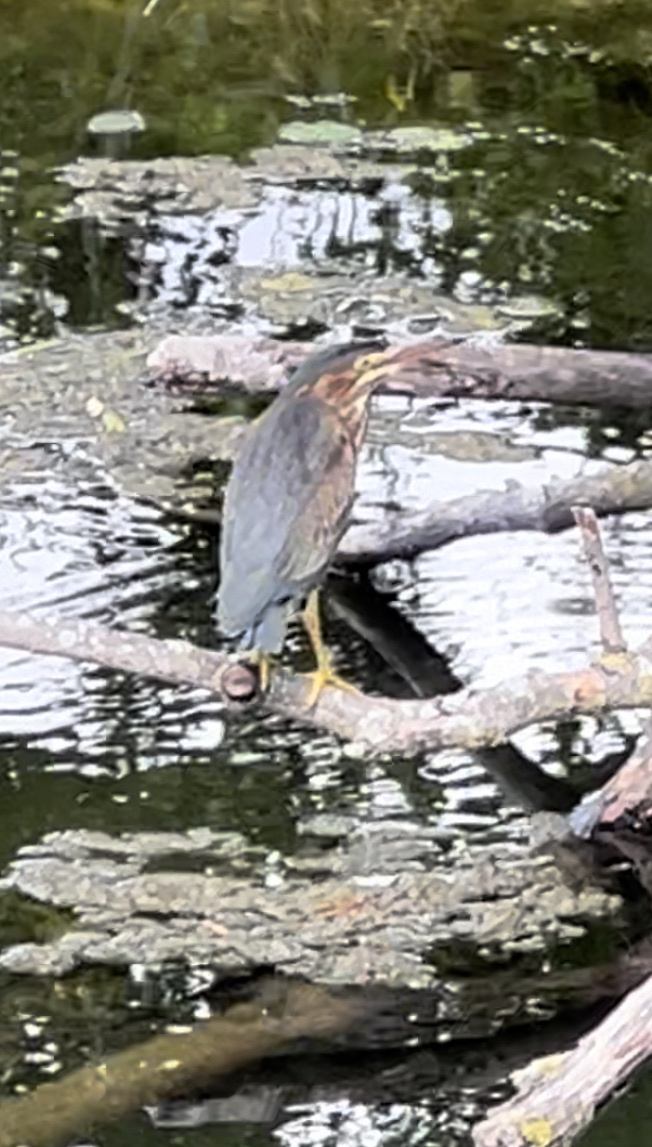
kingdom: Animalia
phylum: Chordata
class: Aves
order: Pelecaniformes
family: Ardeidae
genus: Butorides
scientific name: Butorides virescens
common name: Green heron
